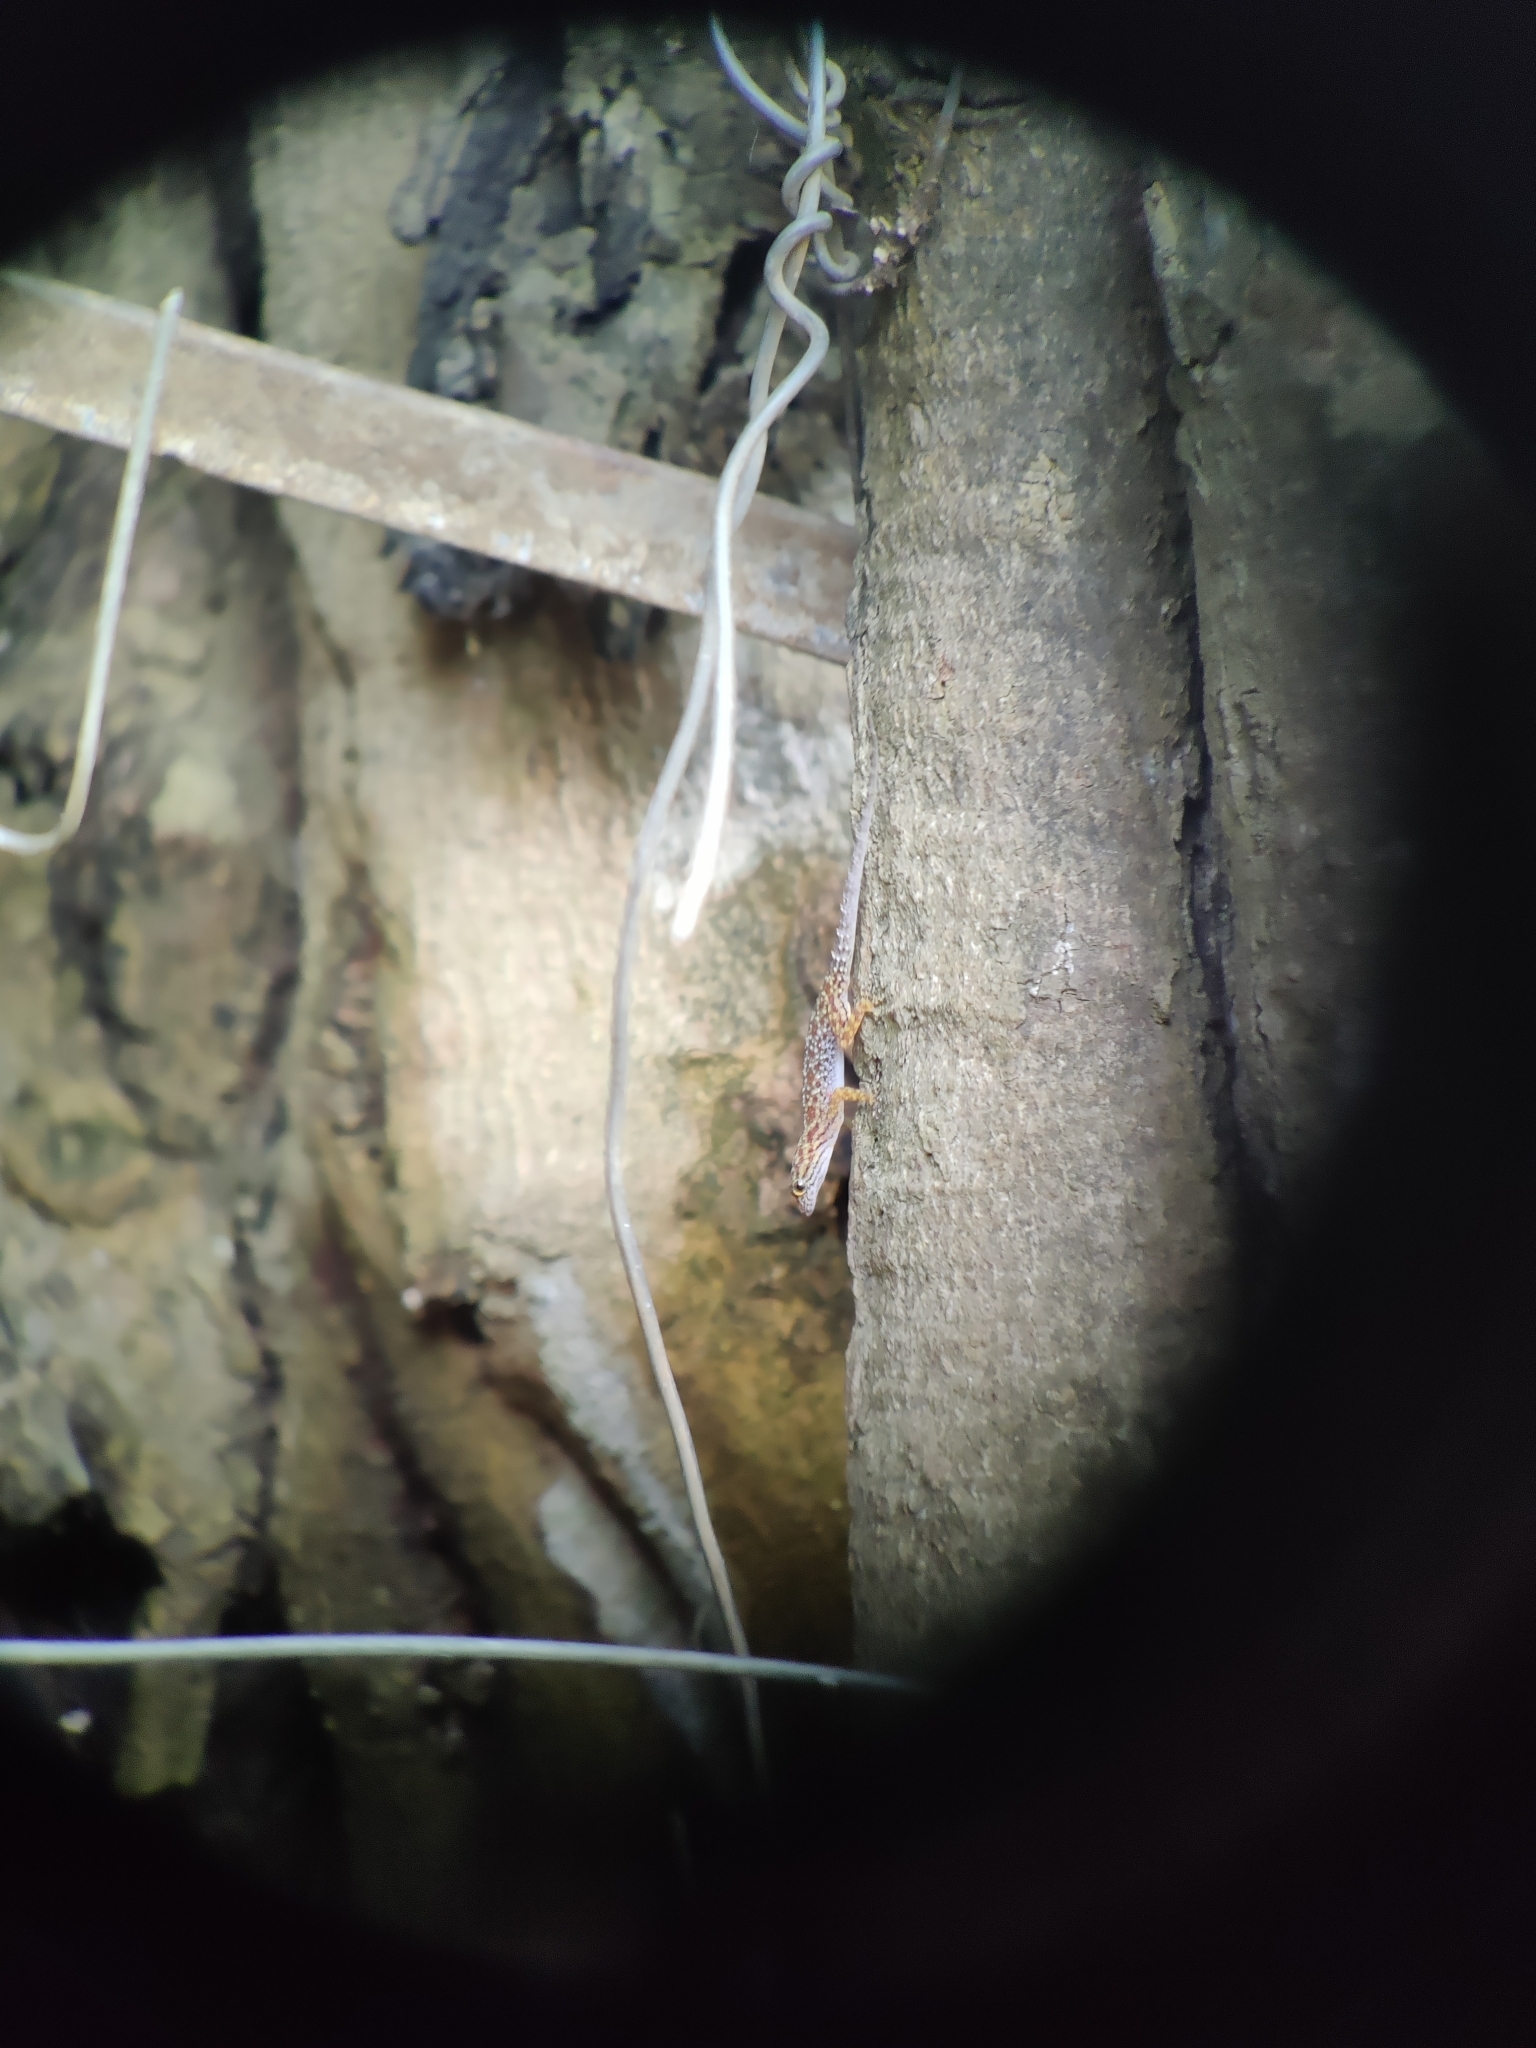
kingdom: Animalia
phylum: Chordata
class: Squamata
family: Gekkonidae
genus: Cnemaspis
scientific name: Cnemaspis gracilis
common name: Graceful day gecko
